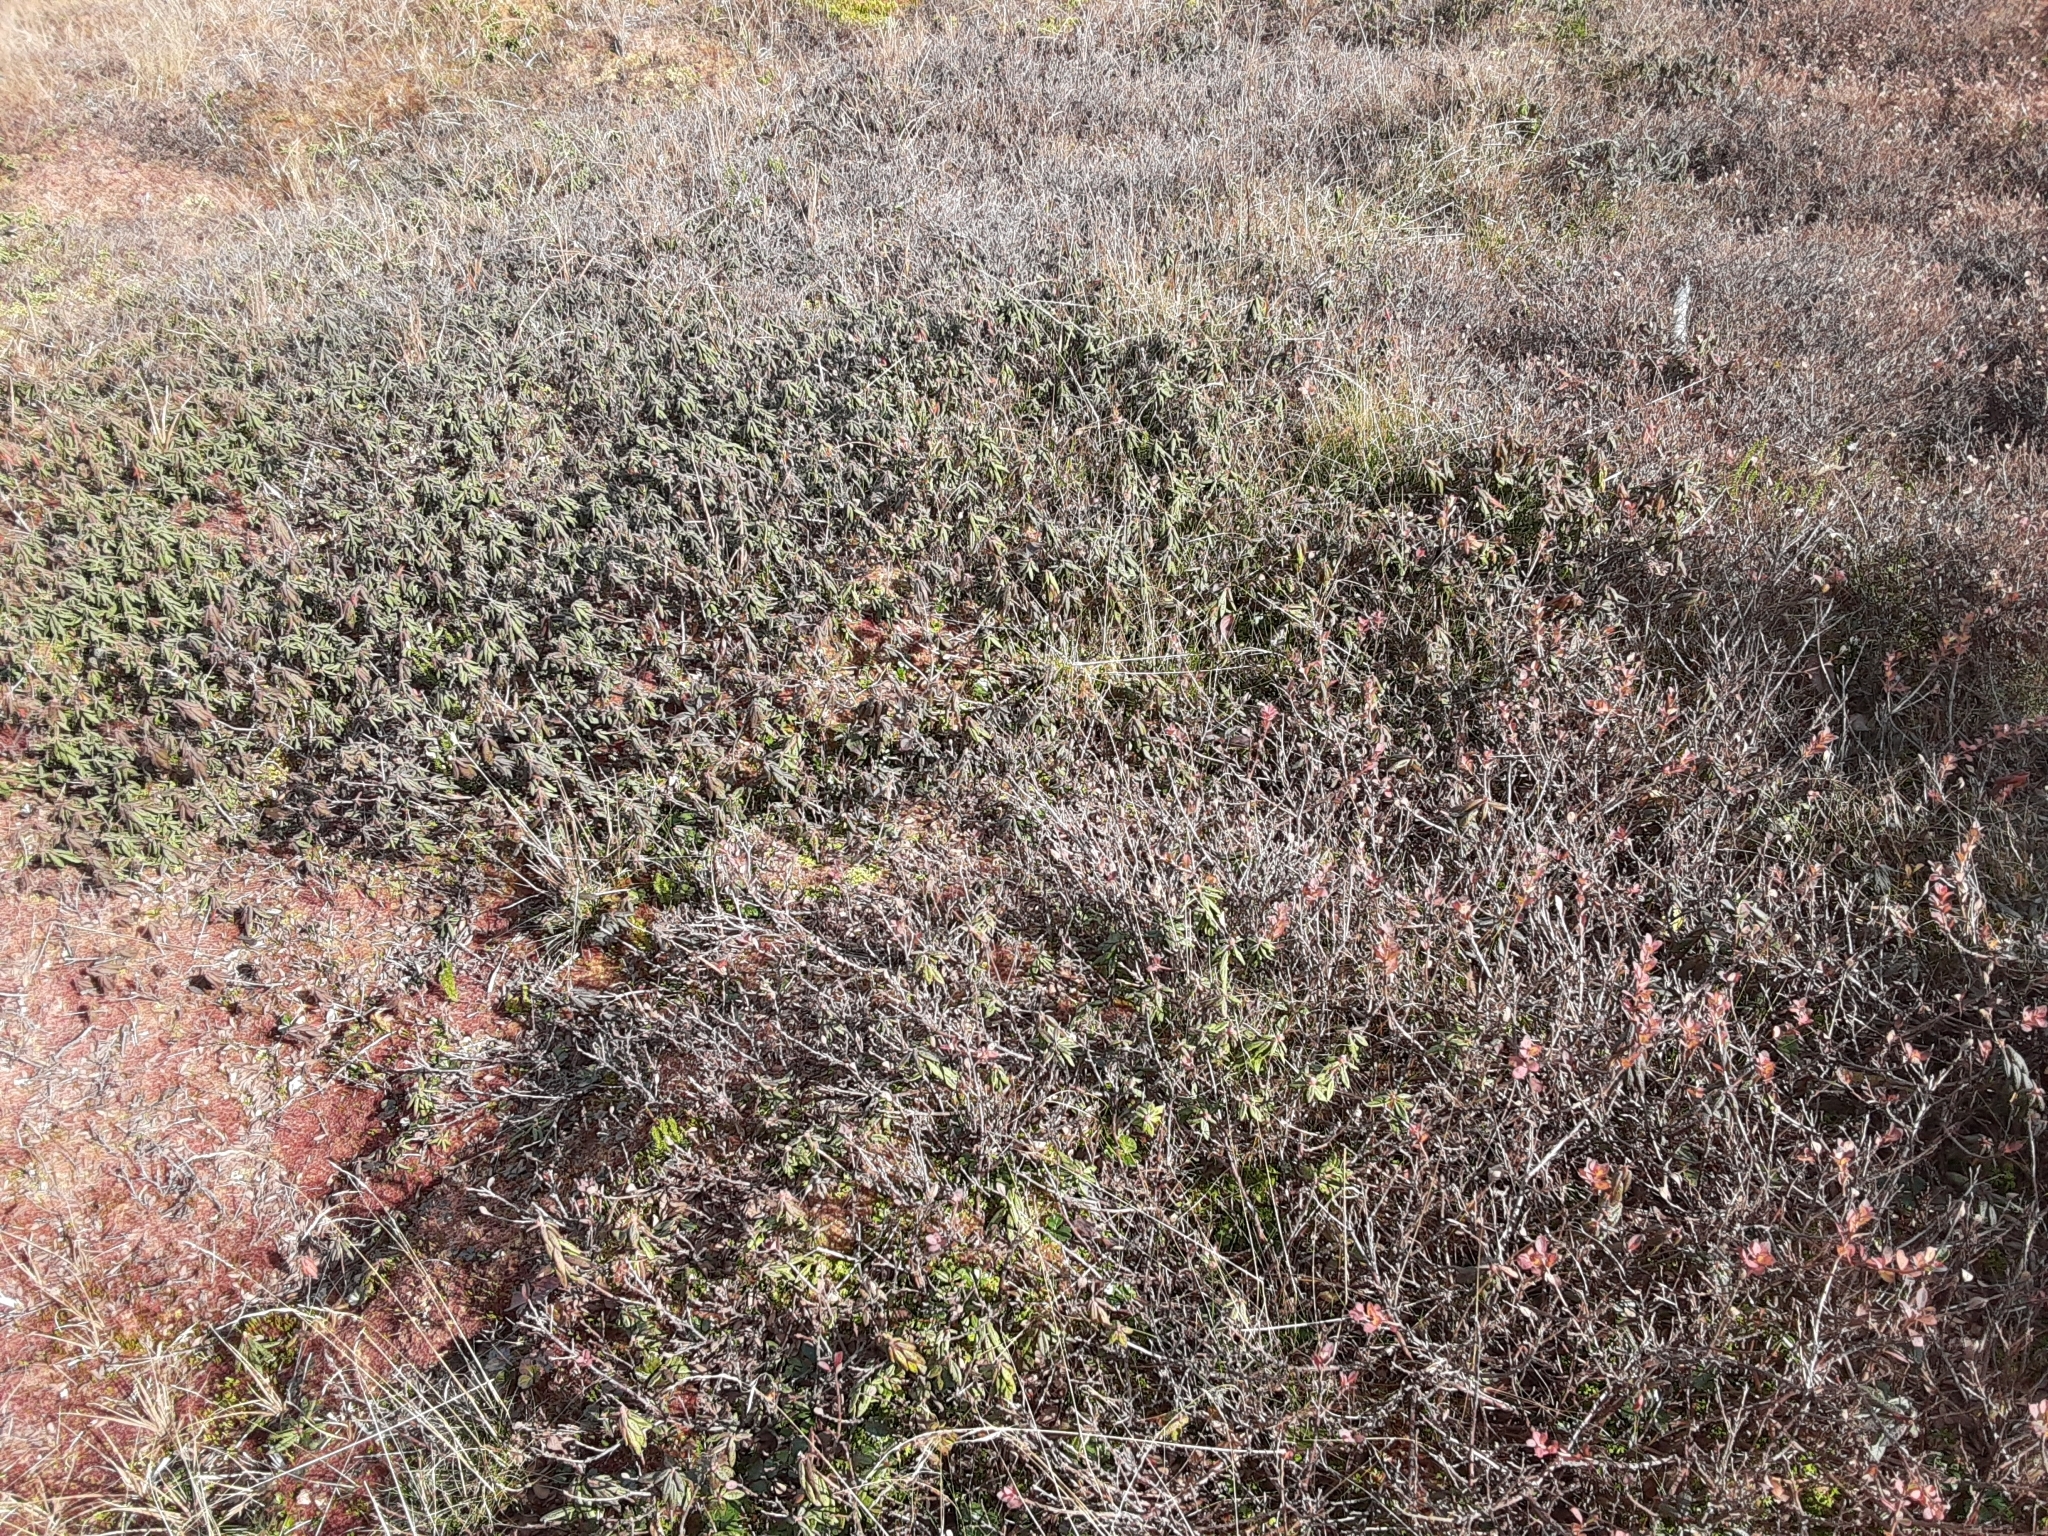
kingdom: Plantae
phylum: Tracheophyta
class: Magnoliopsida
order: Ericales
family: Ericaceae
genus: Rhododendron
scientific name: Rhododendron groenlandicum
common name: Bog labrador tea
